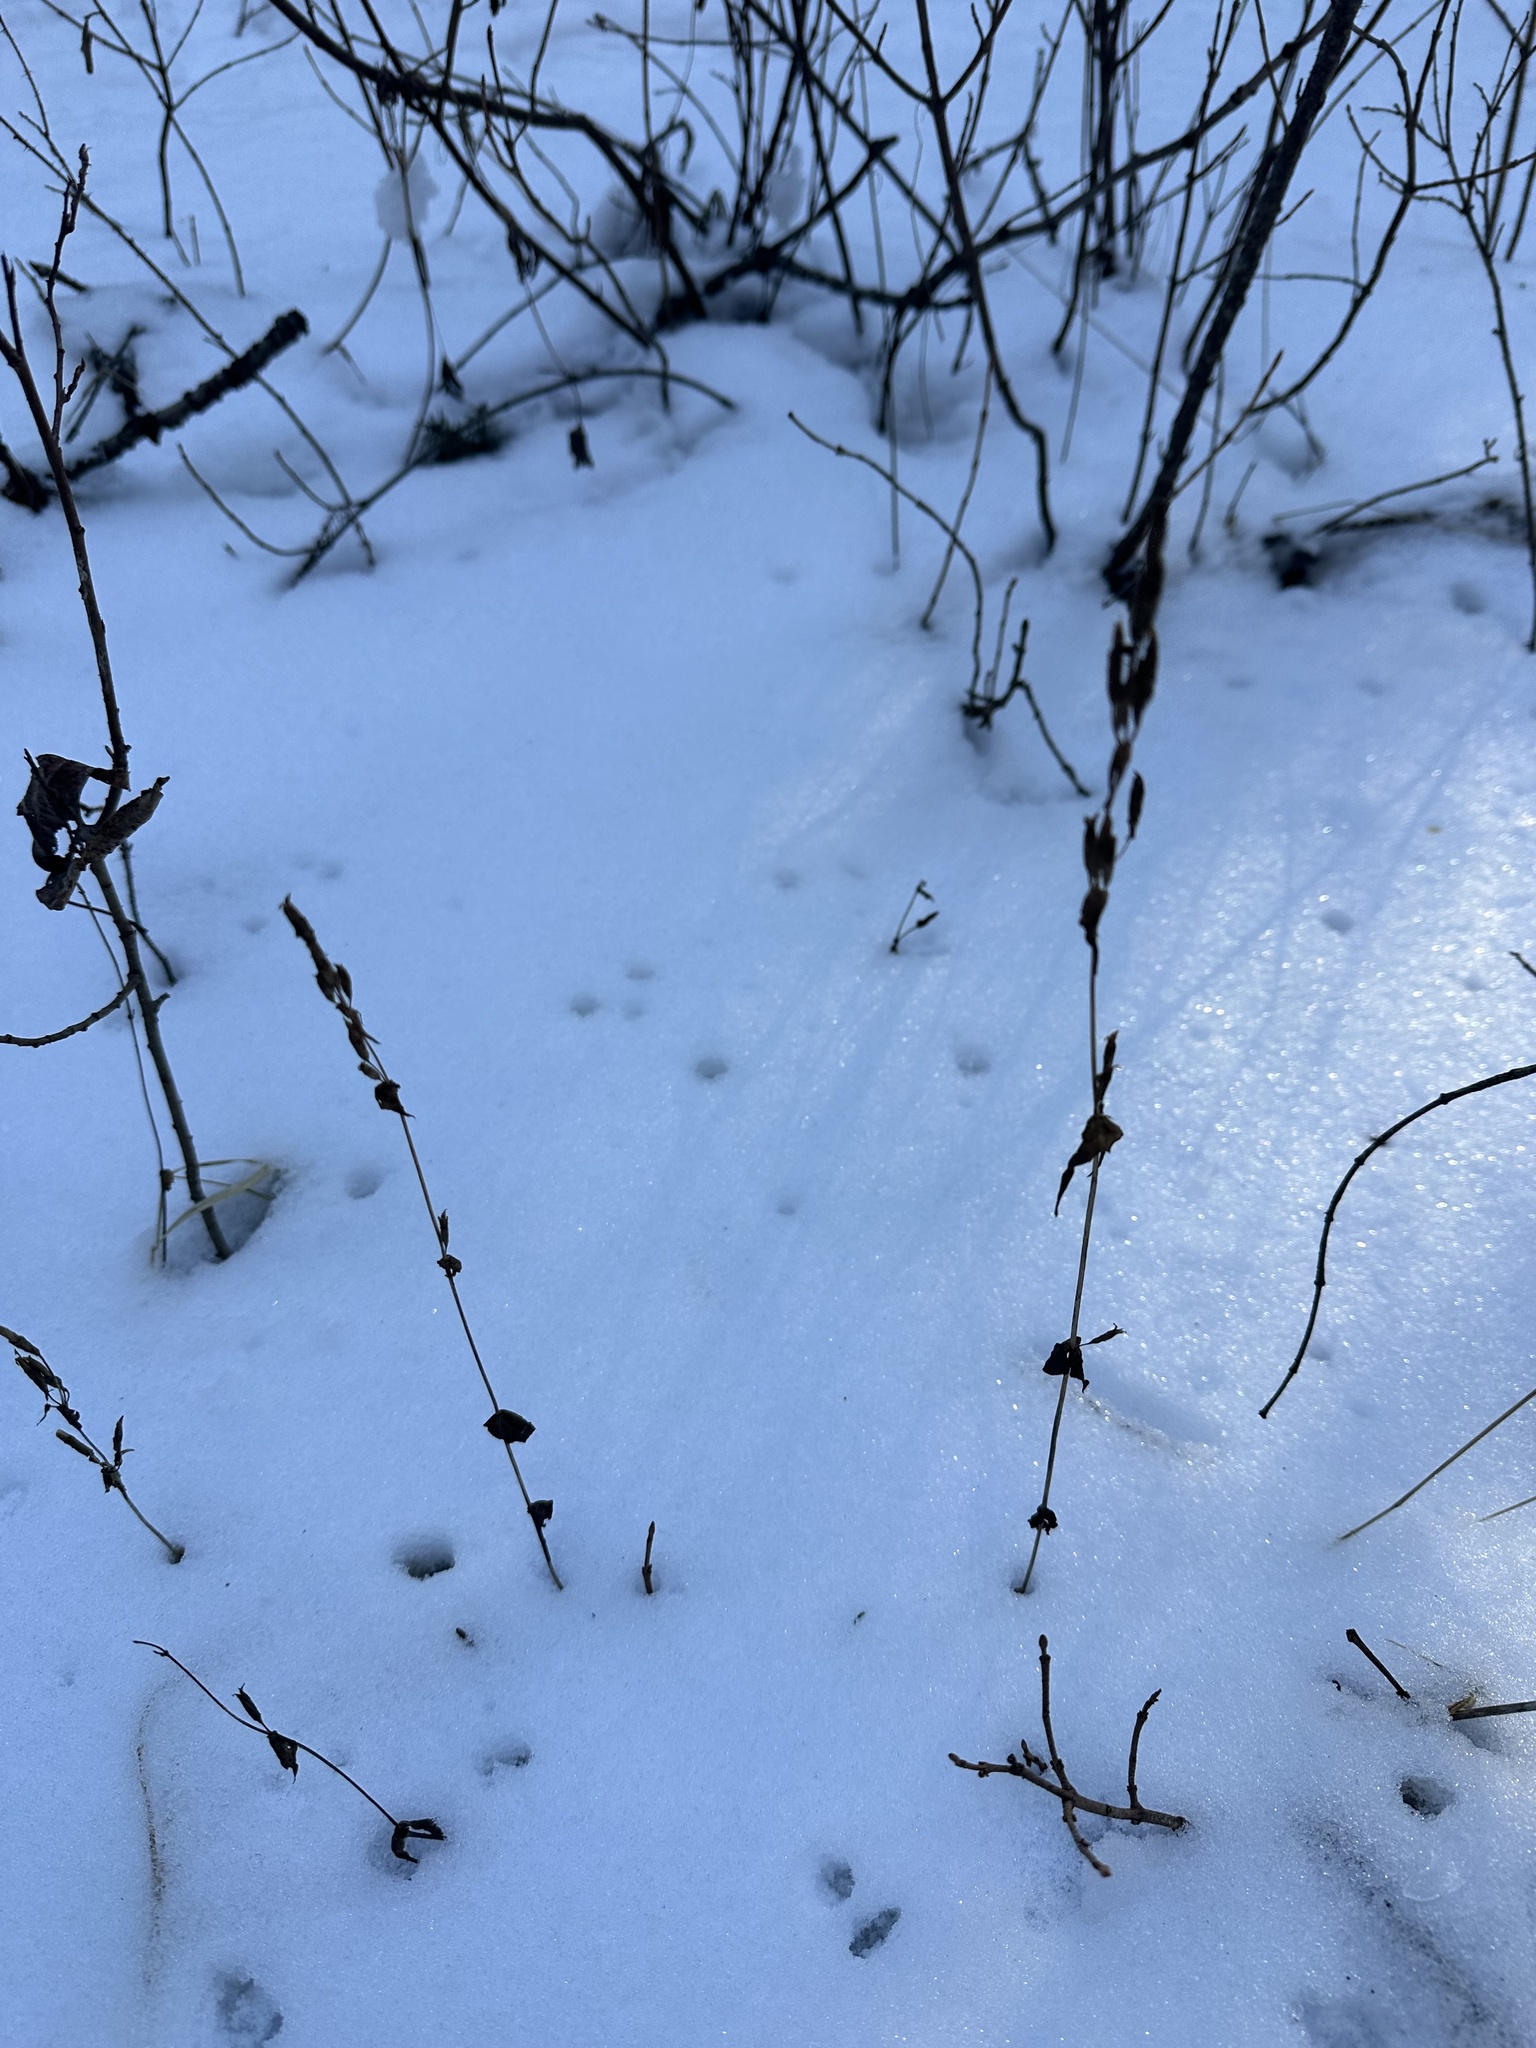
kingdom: Plantae
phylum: Tracheophyta
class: Magnoliopsida
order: Gentianales
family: Gentianaceae
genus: Gentianella
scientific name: Gentianella amarella
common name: Autumn gentian
